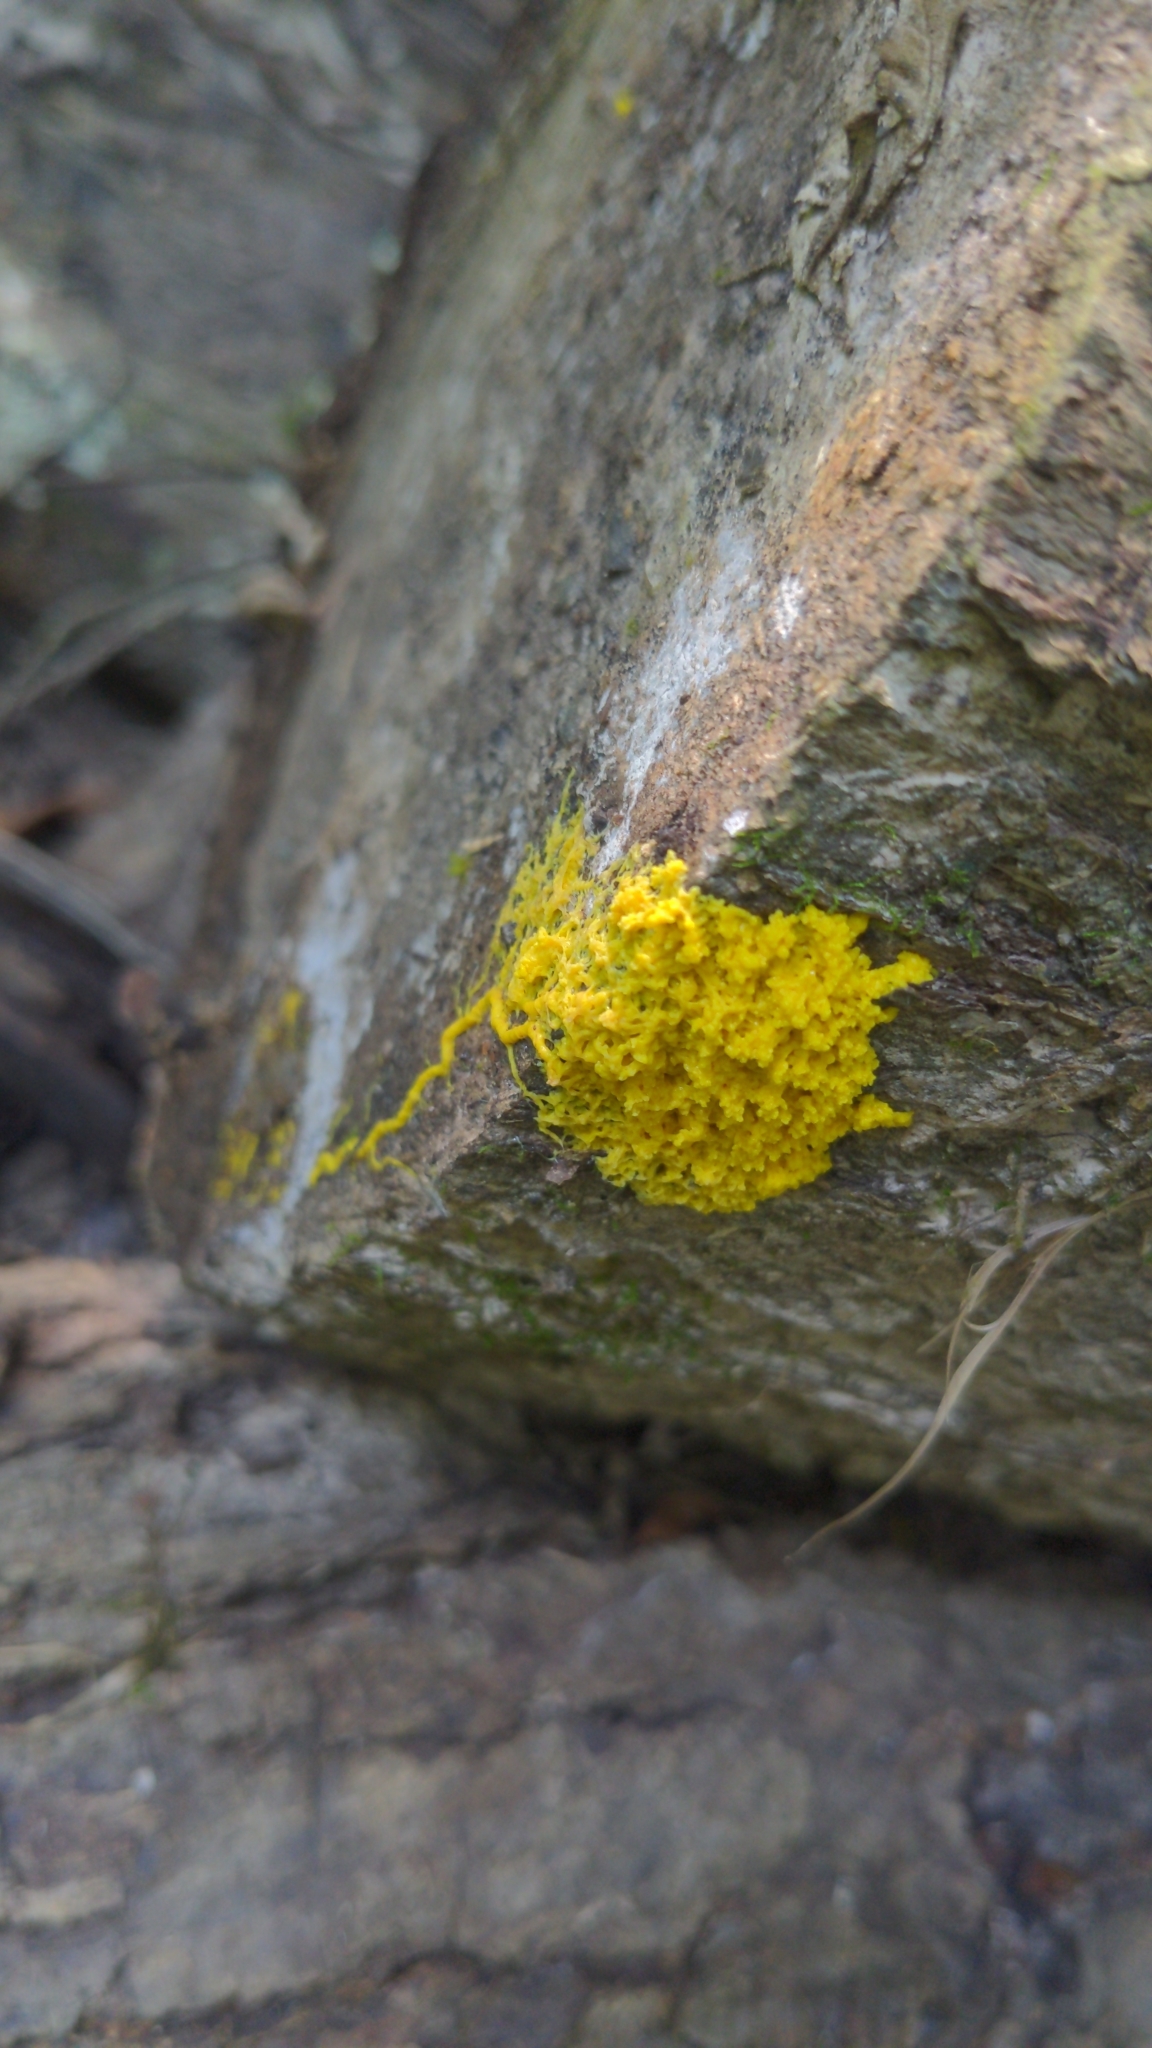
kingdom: Protozoa
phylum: Mycetozoa
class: Myxomycetes
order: Physarales
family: Physaraceae
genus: Fuligo
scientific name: Fuligo septica
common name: Dog vomit slime mold
